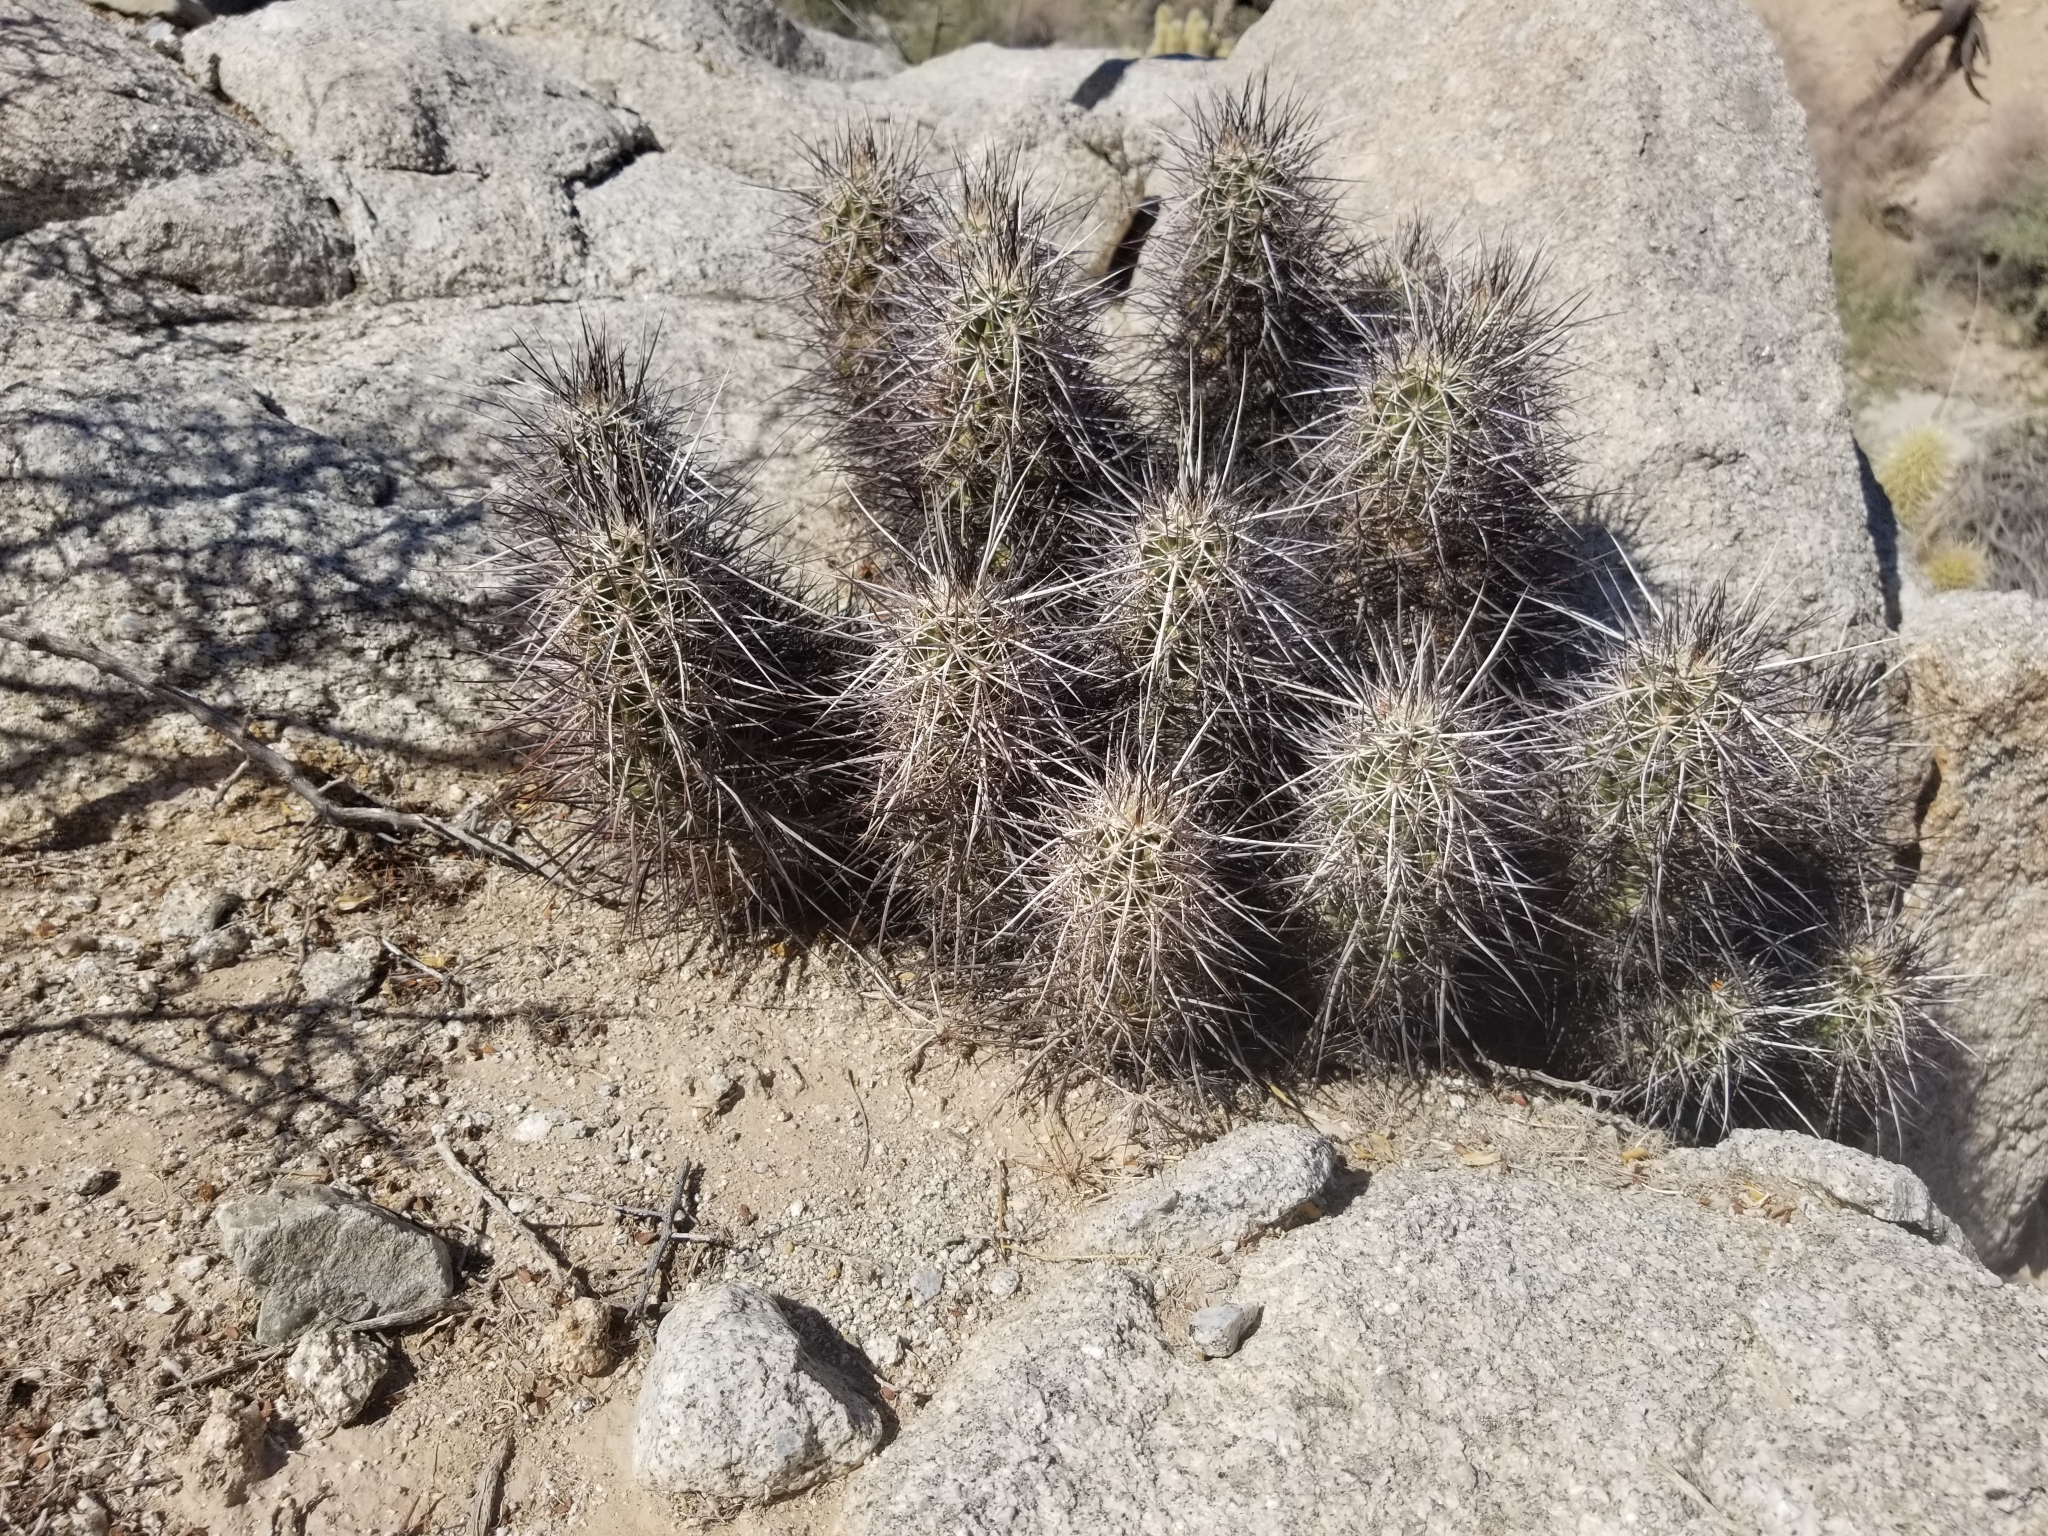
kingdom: Plantae
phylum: Tracheophyta
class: Magnoliopsida
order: Caryophyllales
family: Cactaceae
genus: Echinocereus
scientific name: Echinocereus engelmannii
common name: Engelmann's hedgehog cactus
